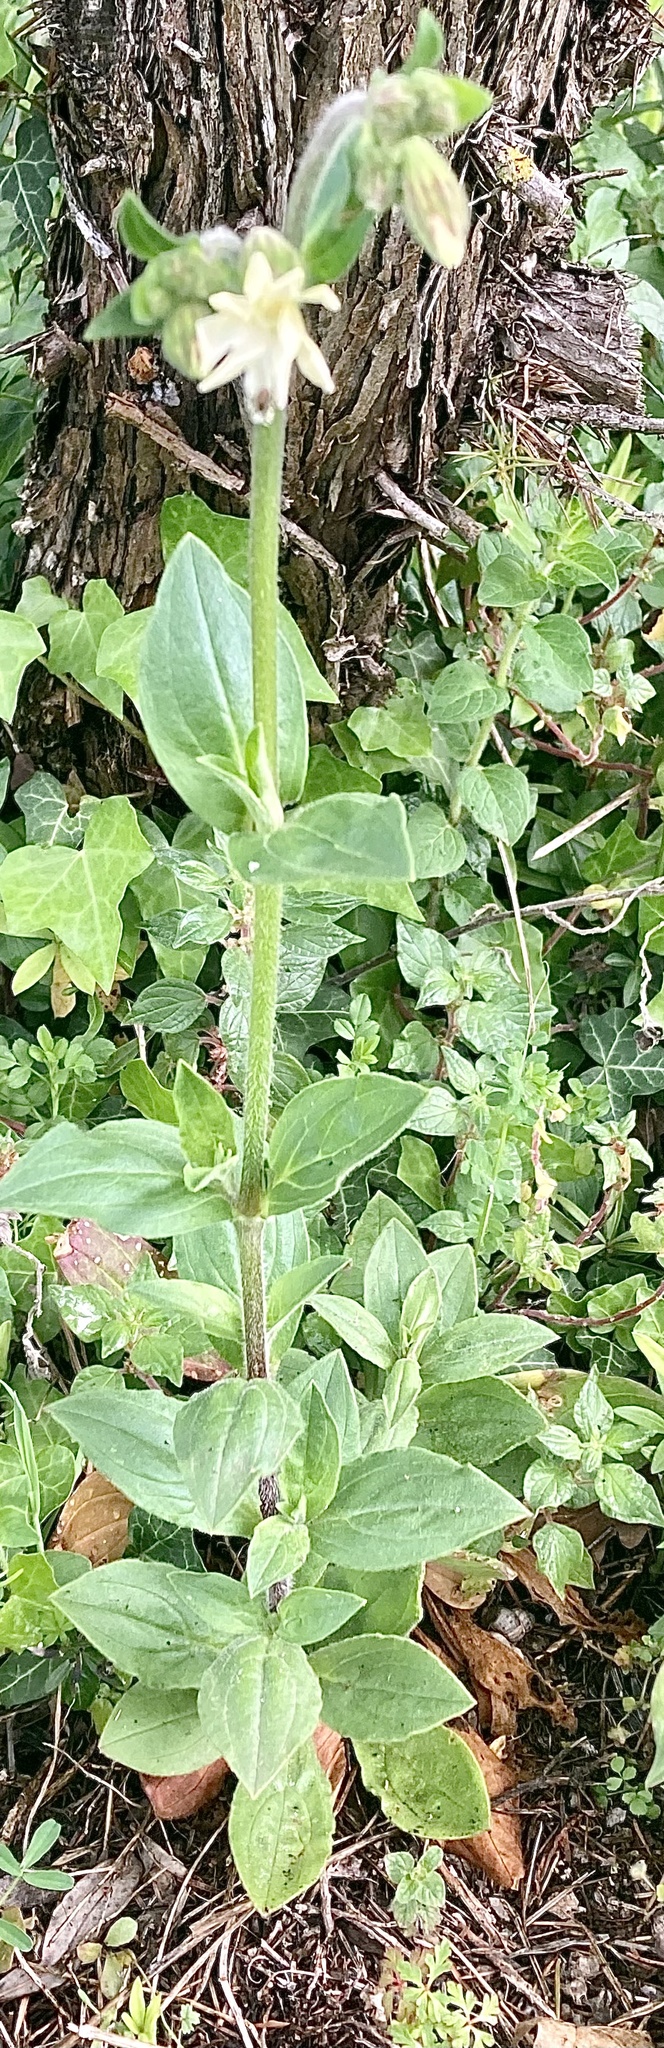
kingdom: Plantae
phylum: Tracheophyta
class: Magnoliopsida
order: Caryophyllales
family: Caryophyllaceae
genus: Silene
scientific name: Silene latifolia
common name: White campion
